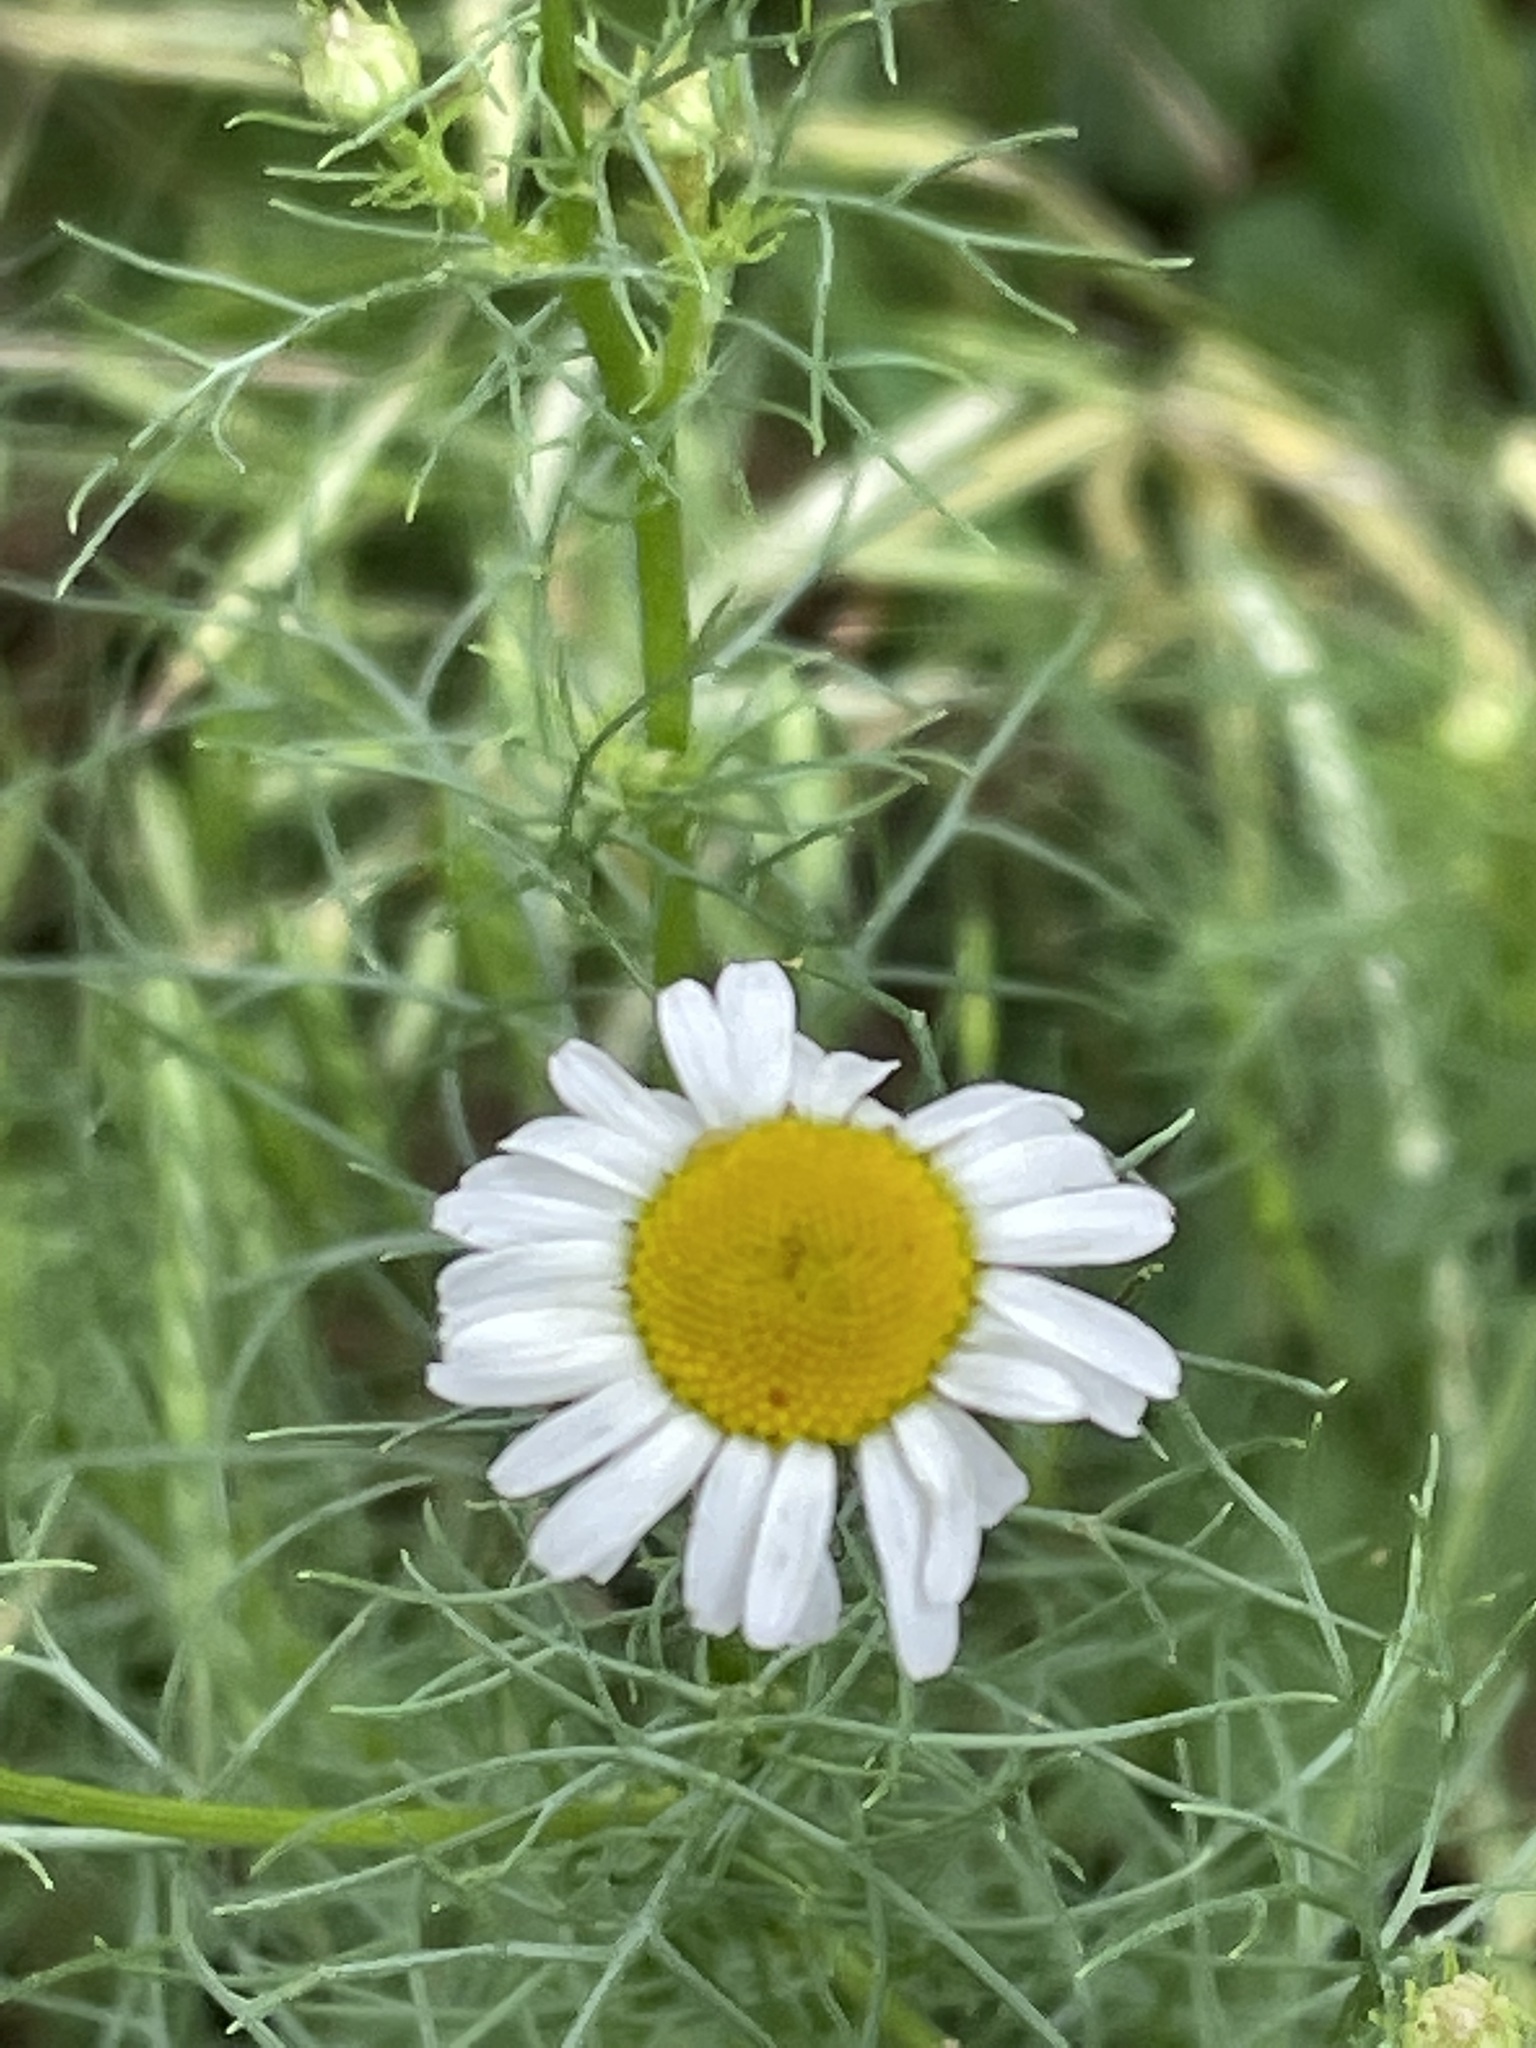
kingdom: Plantae
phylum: Tracheophyta
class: Magnoliopsida
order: Asterales
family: Asteraceae
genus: Tripleurospermum
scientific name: Tripleurospermum inodorum
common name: Scentless mayweed
